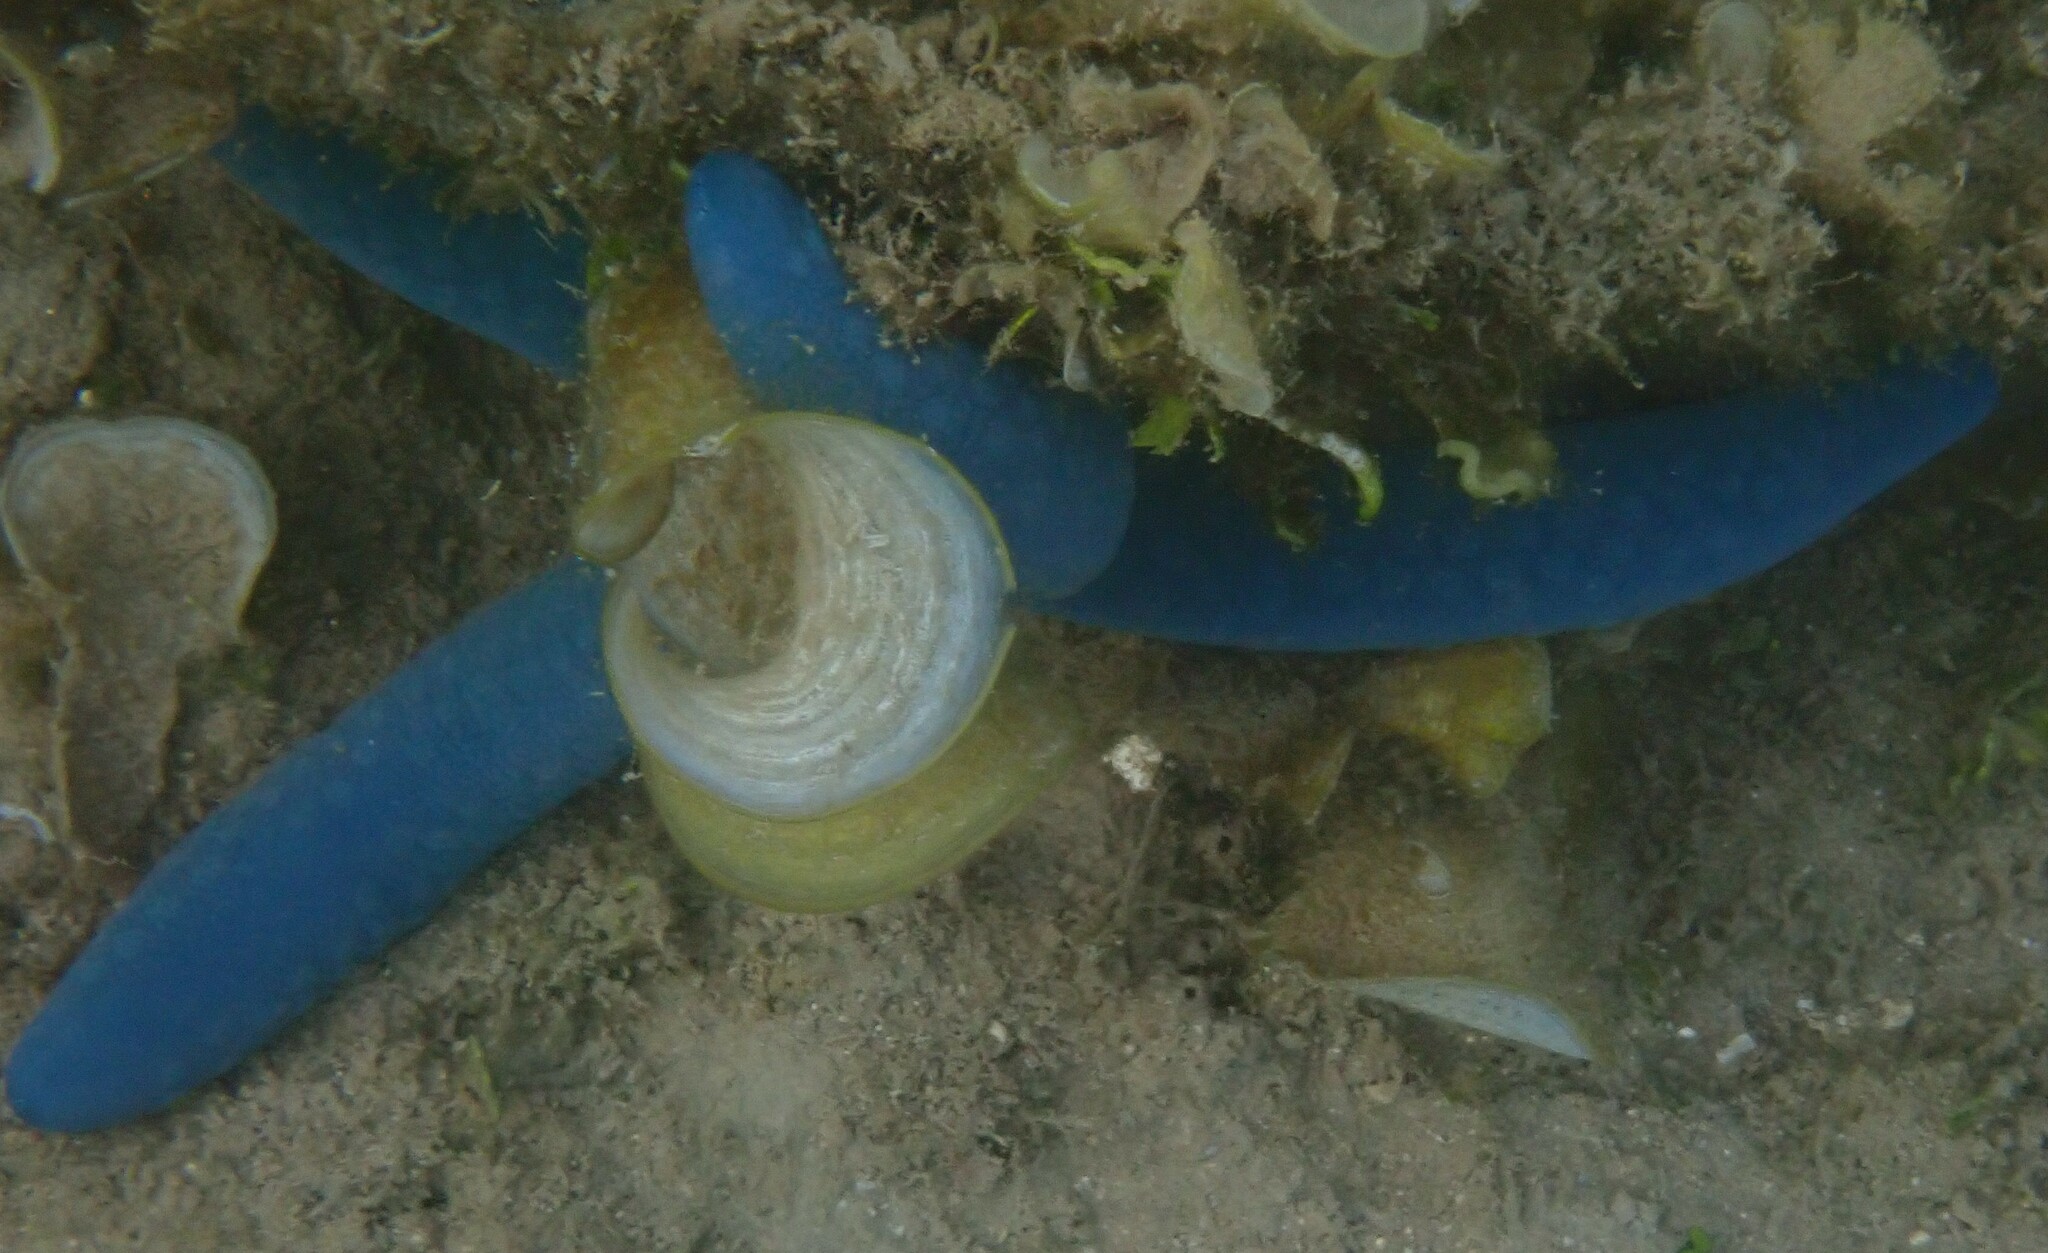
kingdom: Animalia
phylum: Echinodermata
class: Asteroidea
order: Valvatida
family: Ophidiasteridae
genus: Linckia
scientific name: Linckia laevigata
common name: Azure sea star
